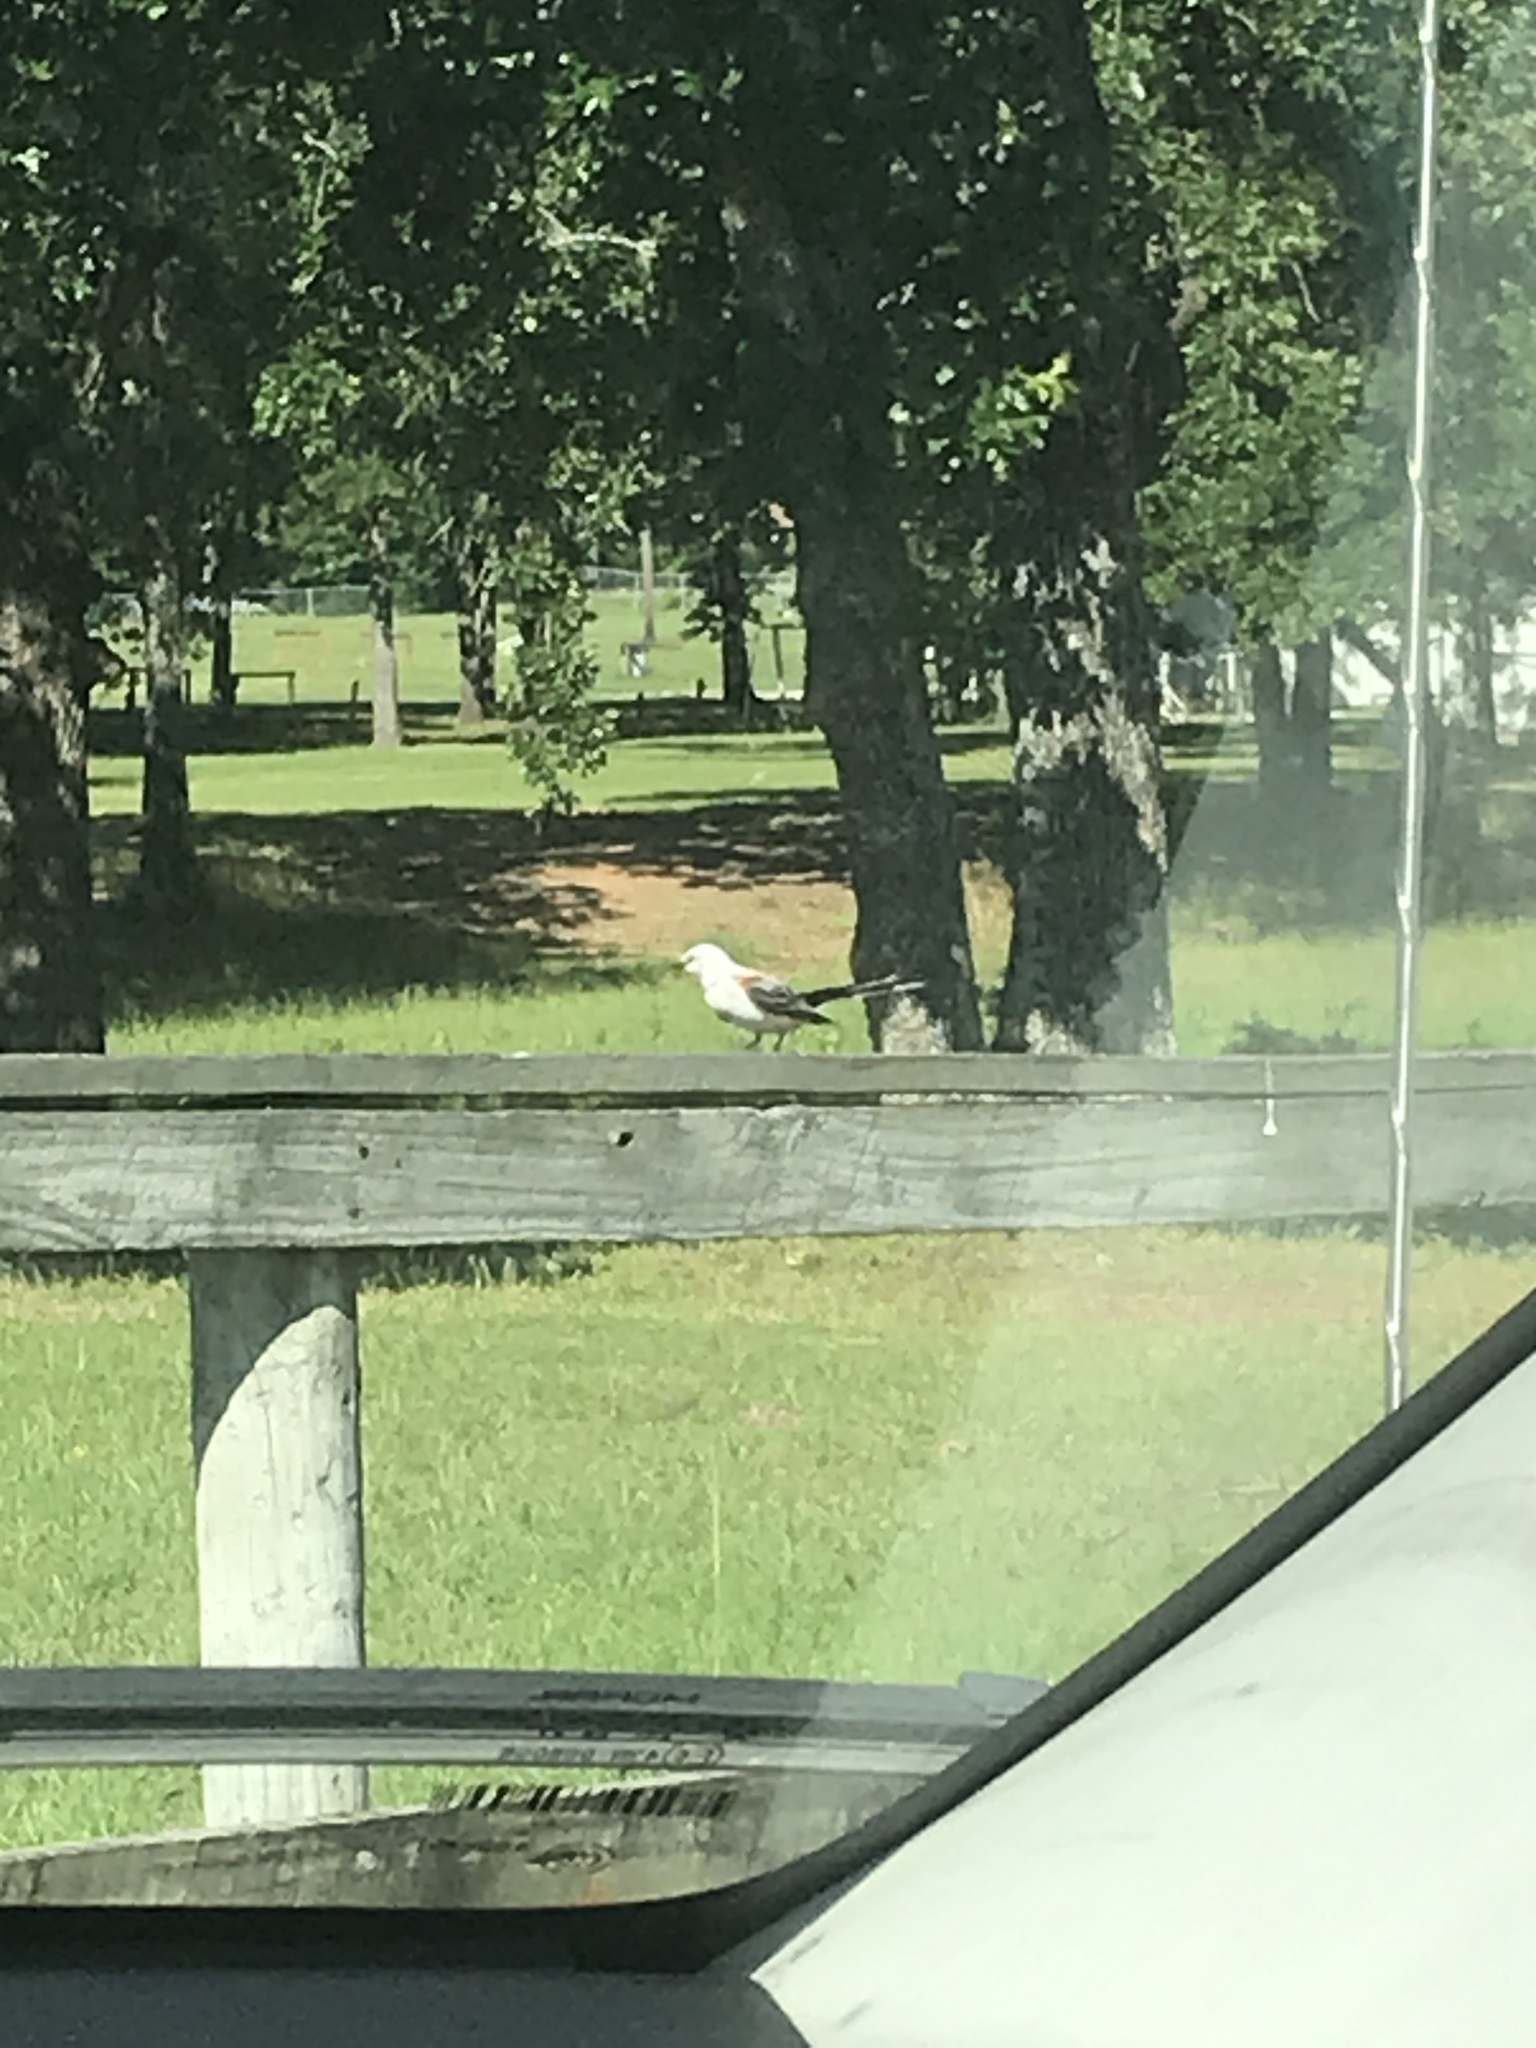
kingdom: Animalia
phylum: Chordata
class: Aves
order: Passeriformes
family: Tyrannidae
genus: Tyrannus
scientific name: Tyrannus forficatus
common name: Scissor-tailed flycatcher
